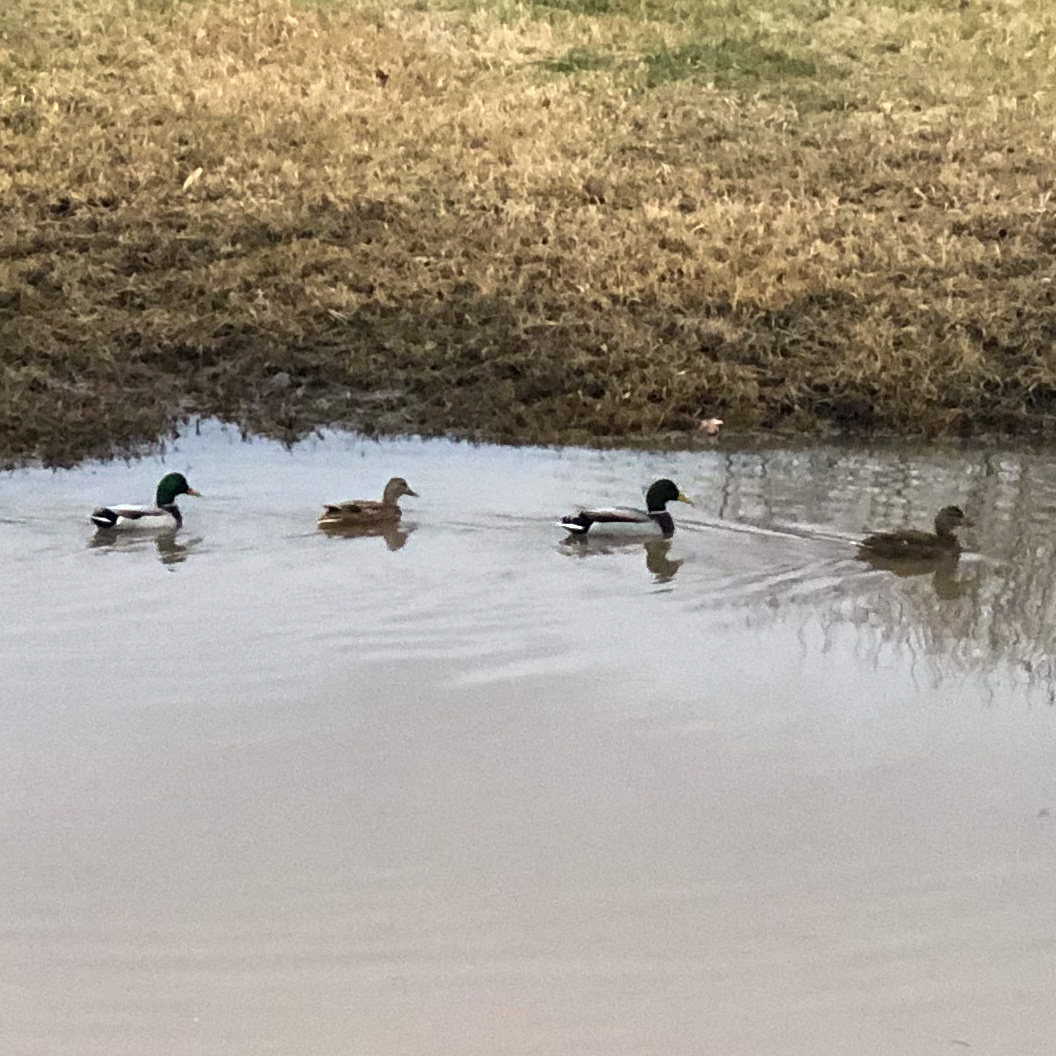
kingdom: Animalia
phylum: Chordata
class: Aves
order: Anseriformes
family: Anatidae
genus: Anas
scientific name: Anas platyrhynchos
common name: Mallard
